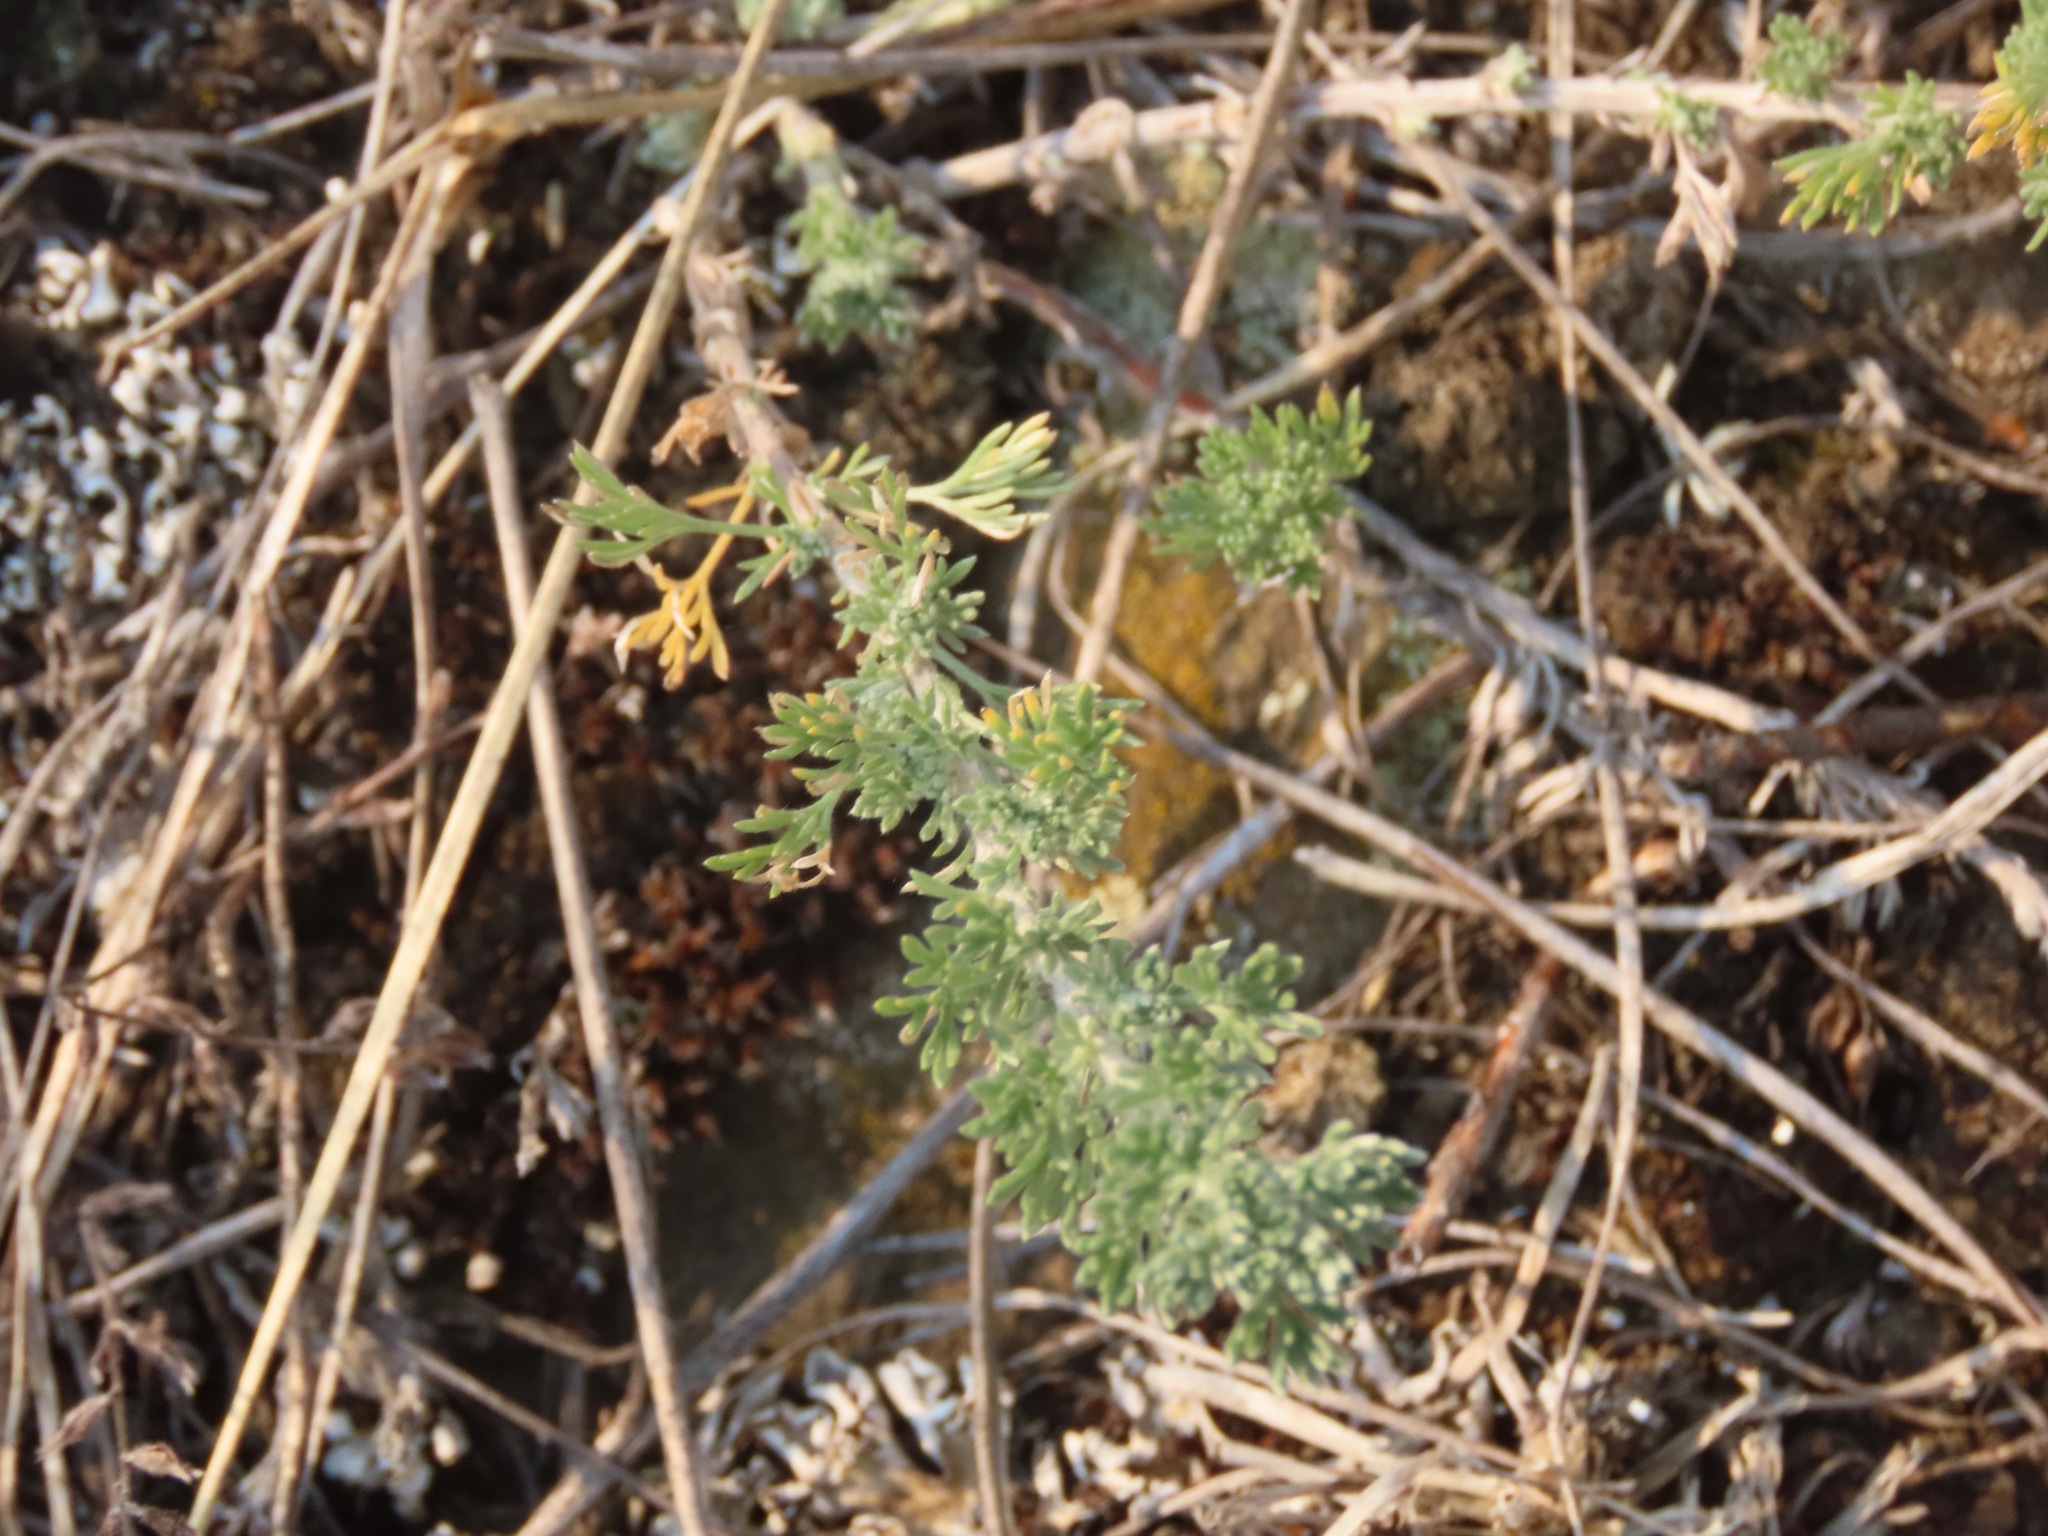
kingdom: Plantae
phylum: Tracheophyta
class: Magnoliopsida
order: Asterales
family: Asteraceae
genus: Artemisia
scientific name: Artemisia frigida
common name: Prairie sagewort
